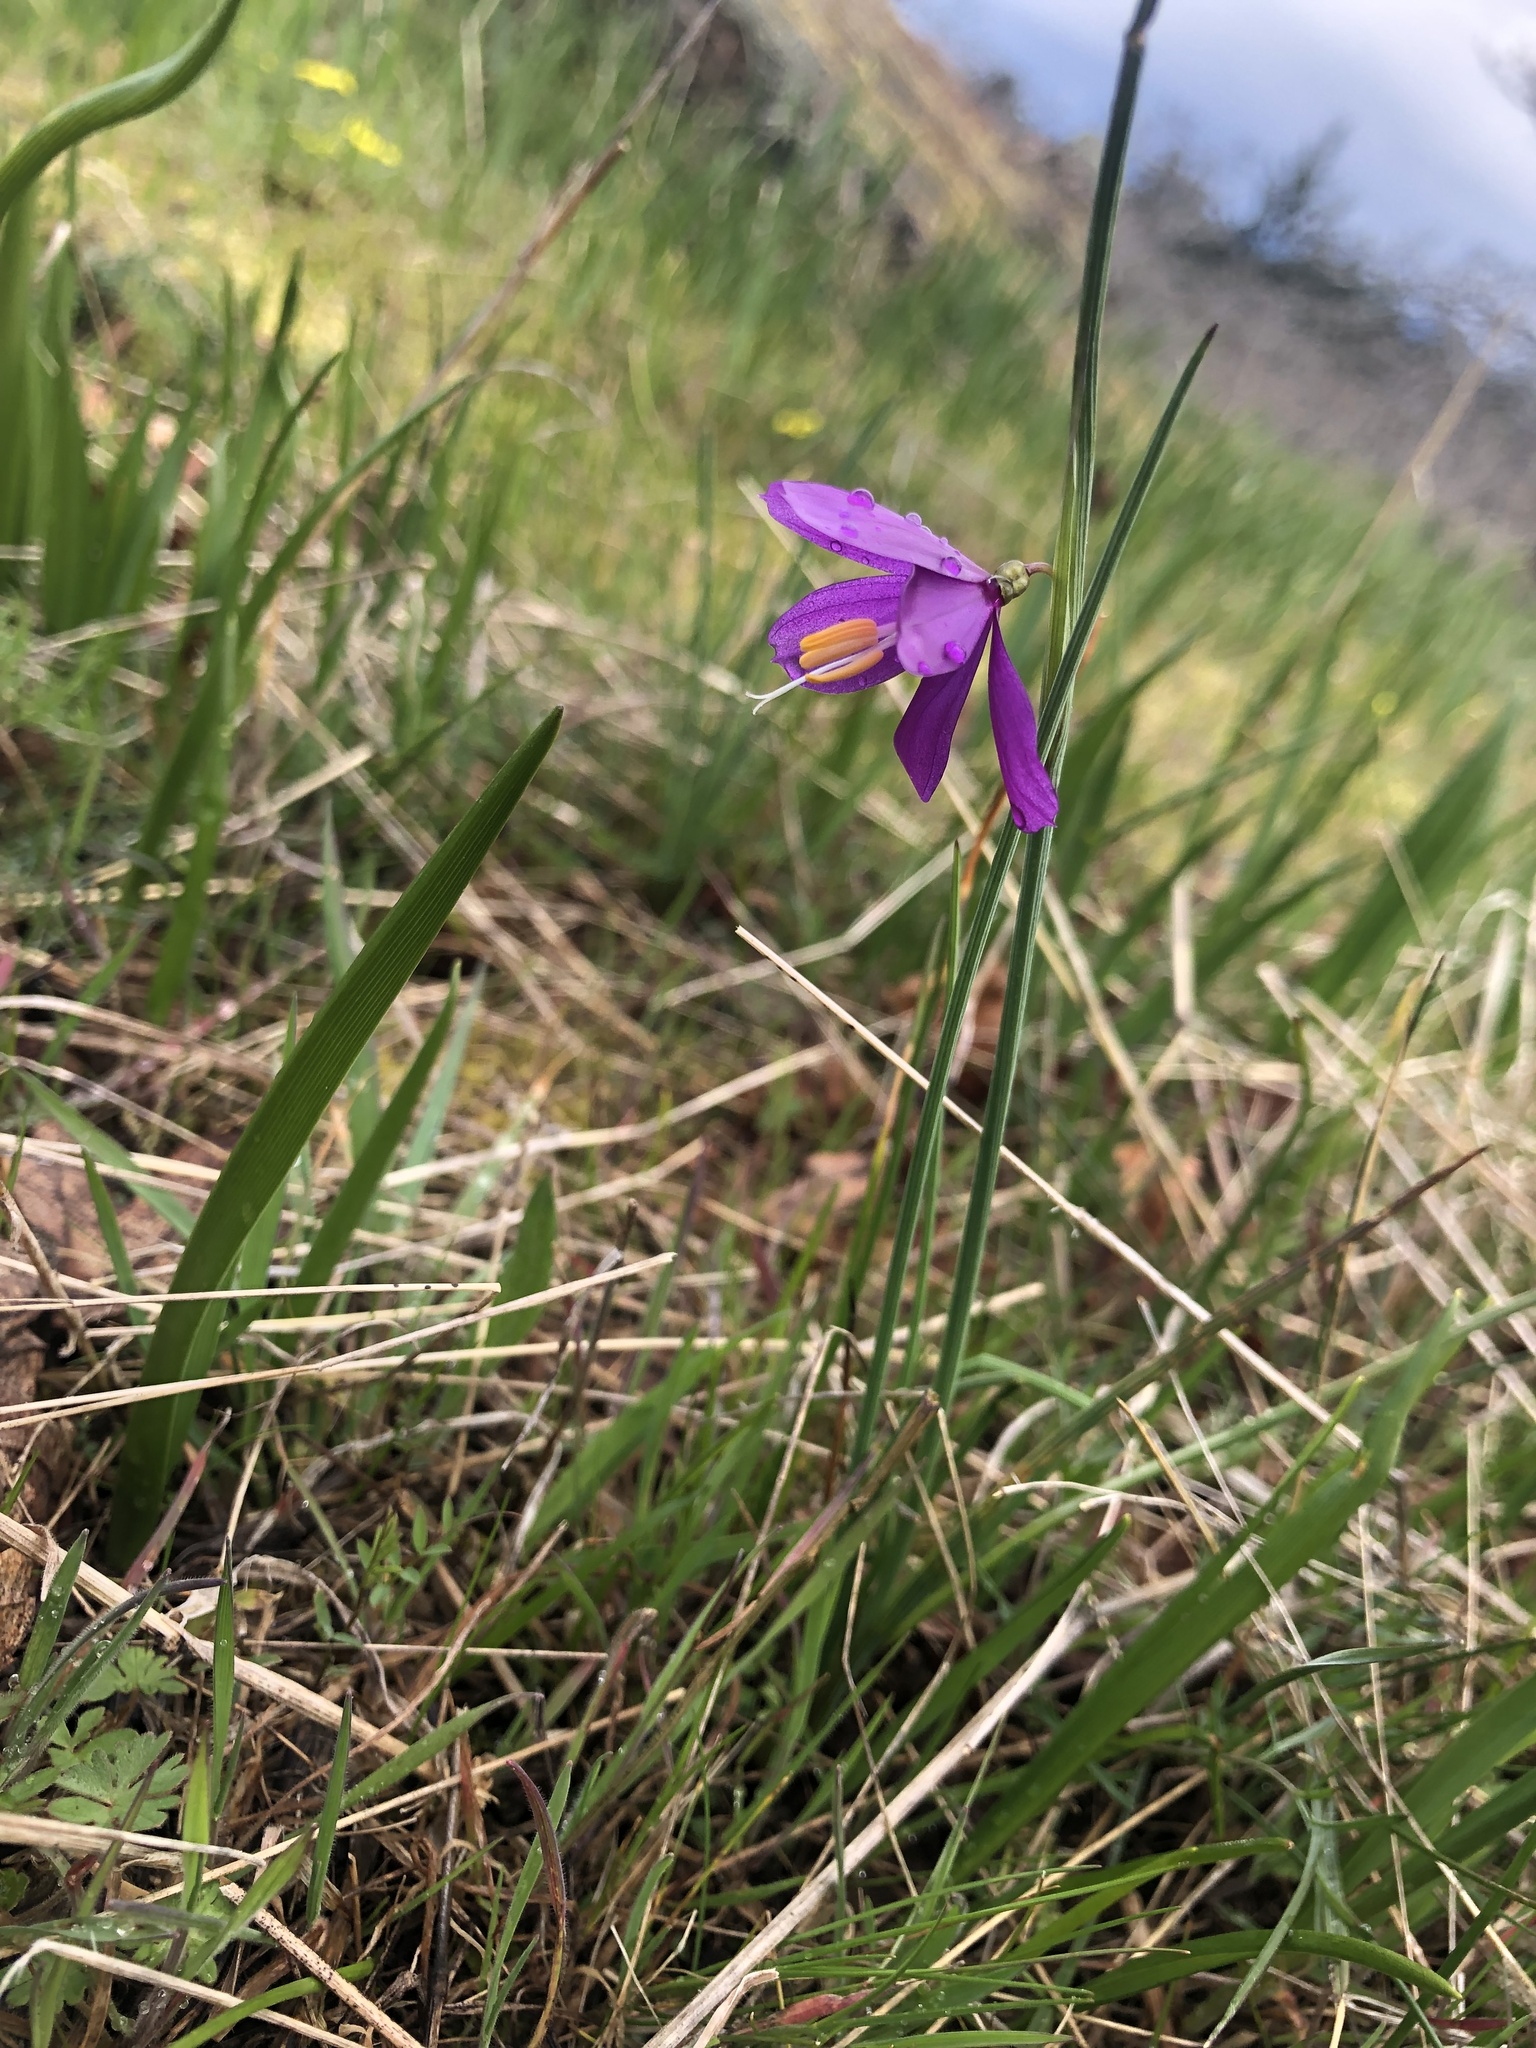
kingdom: Plantae
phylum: Tracheophyta
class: Liliopsida
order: Asparagales
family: Iridaceae
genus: Olsynium
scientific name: Olsynium douglasii
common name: Douglas' grasswidow
